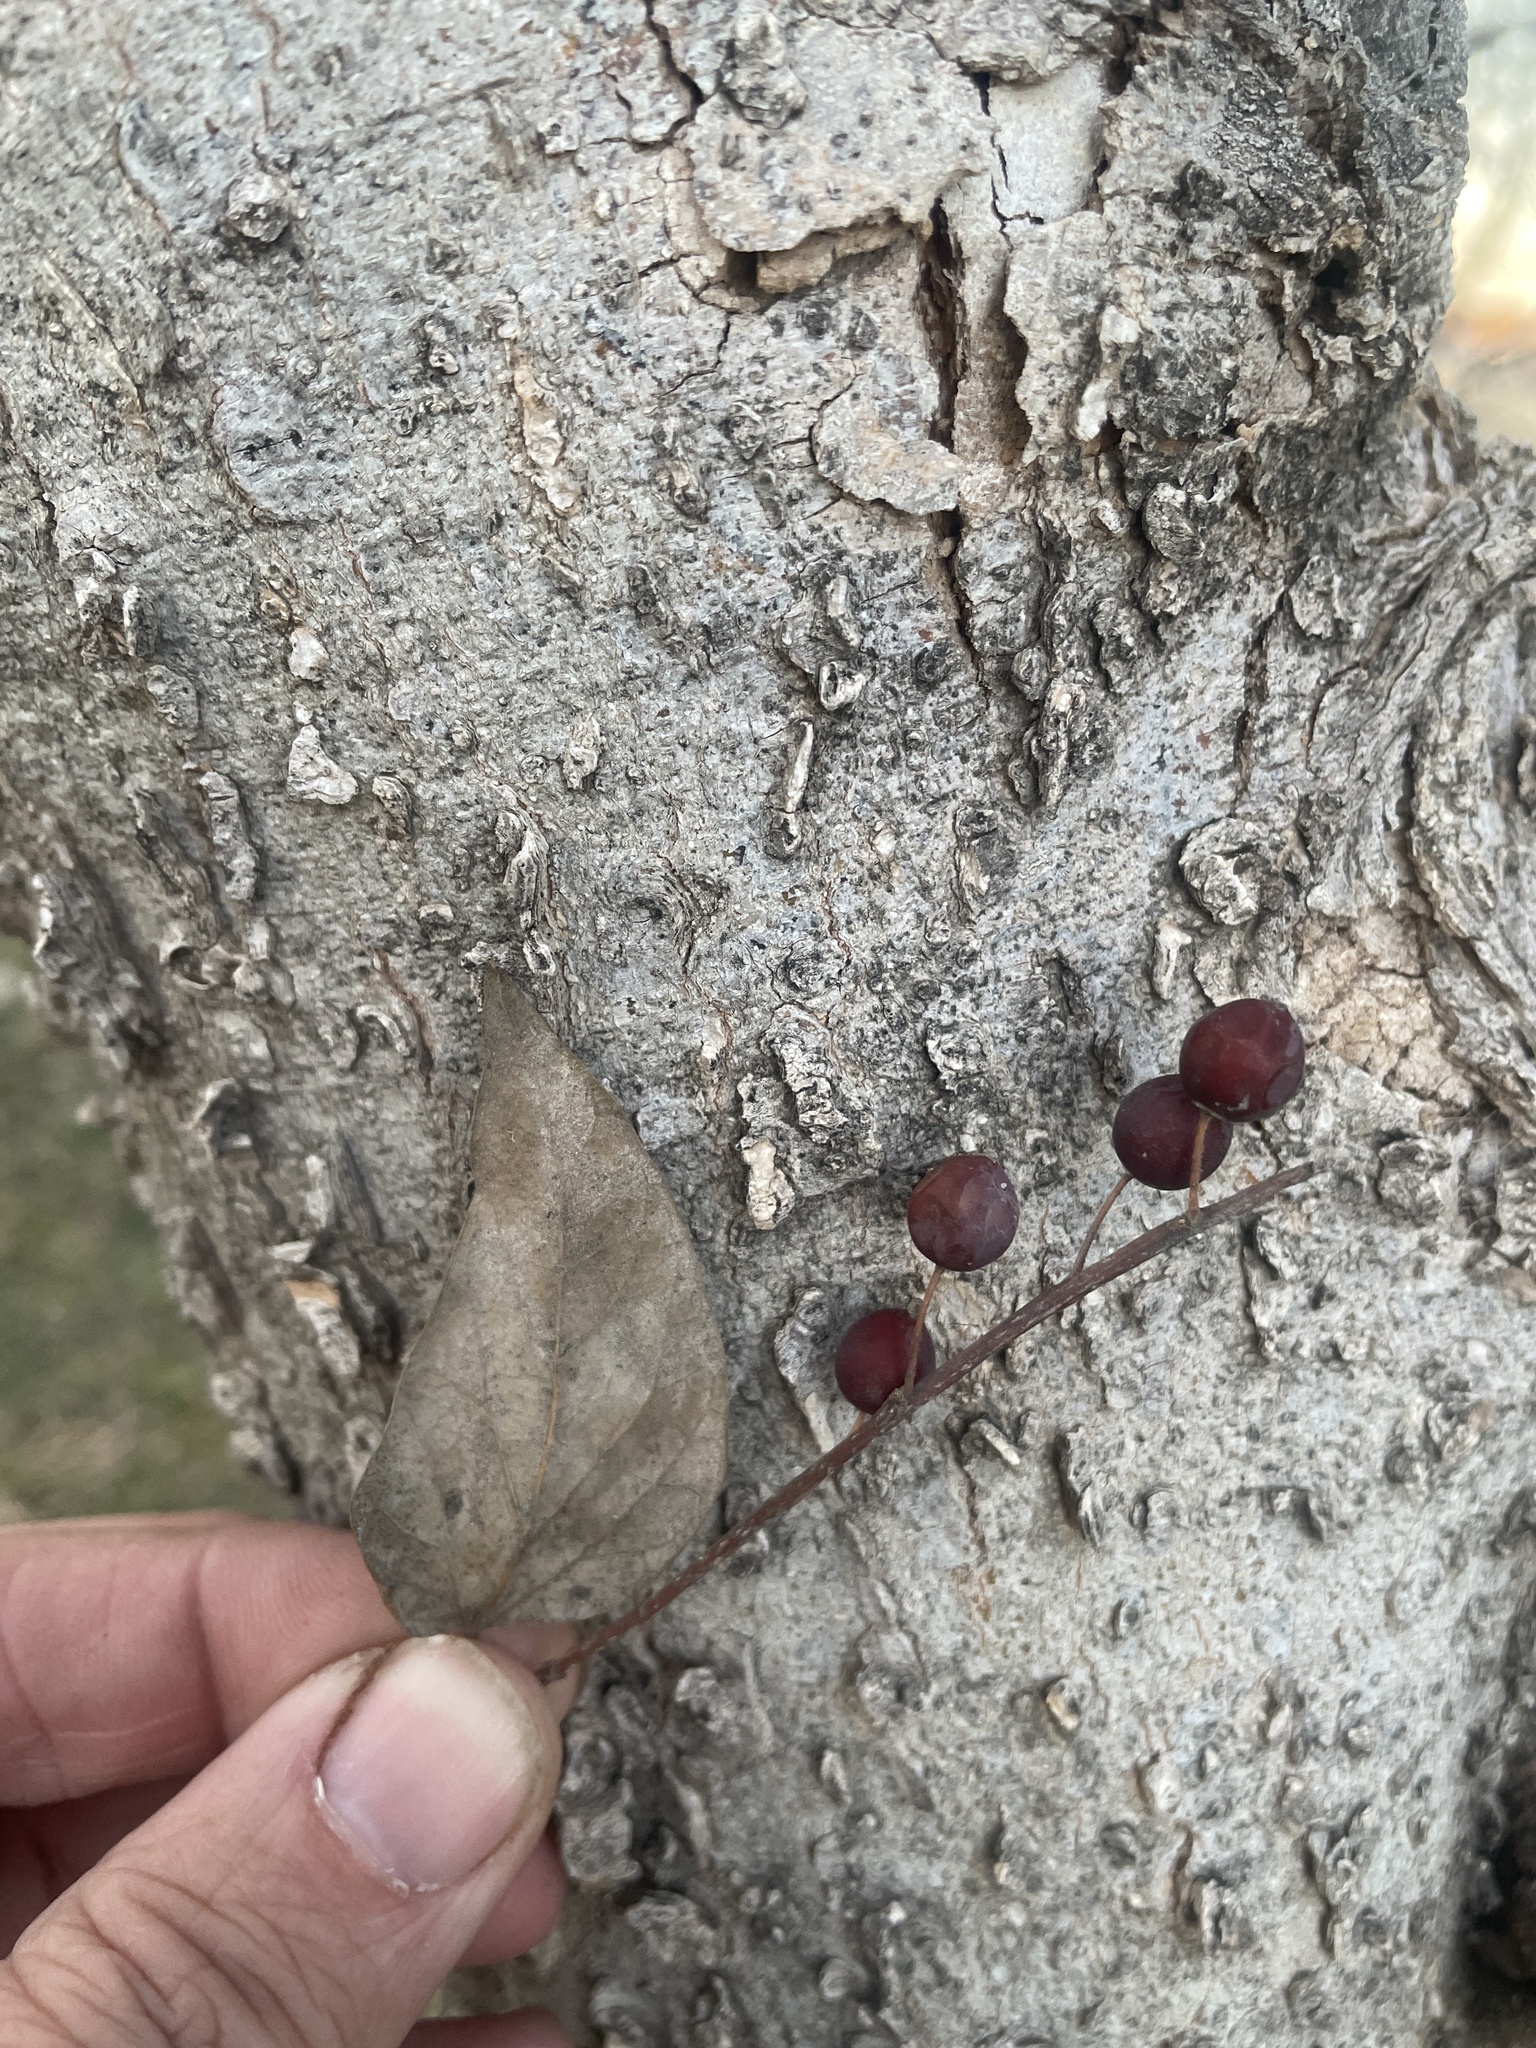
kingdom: Plantae
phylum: Tracheophyta
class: Magnoliopsida
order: Rosales
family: Cannabaceae
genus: Celtis
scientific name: Celtis laevigata
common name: Sugarberry
